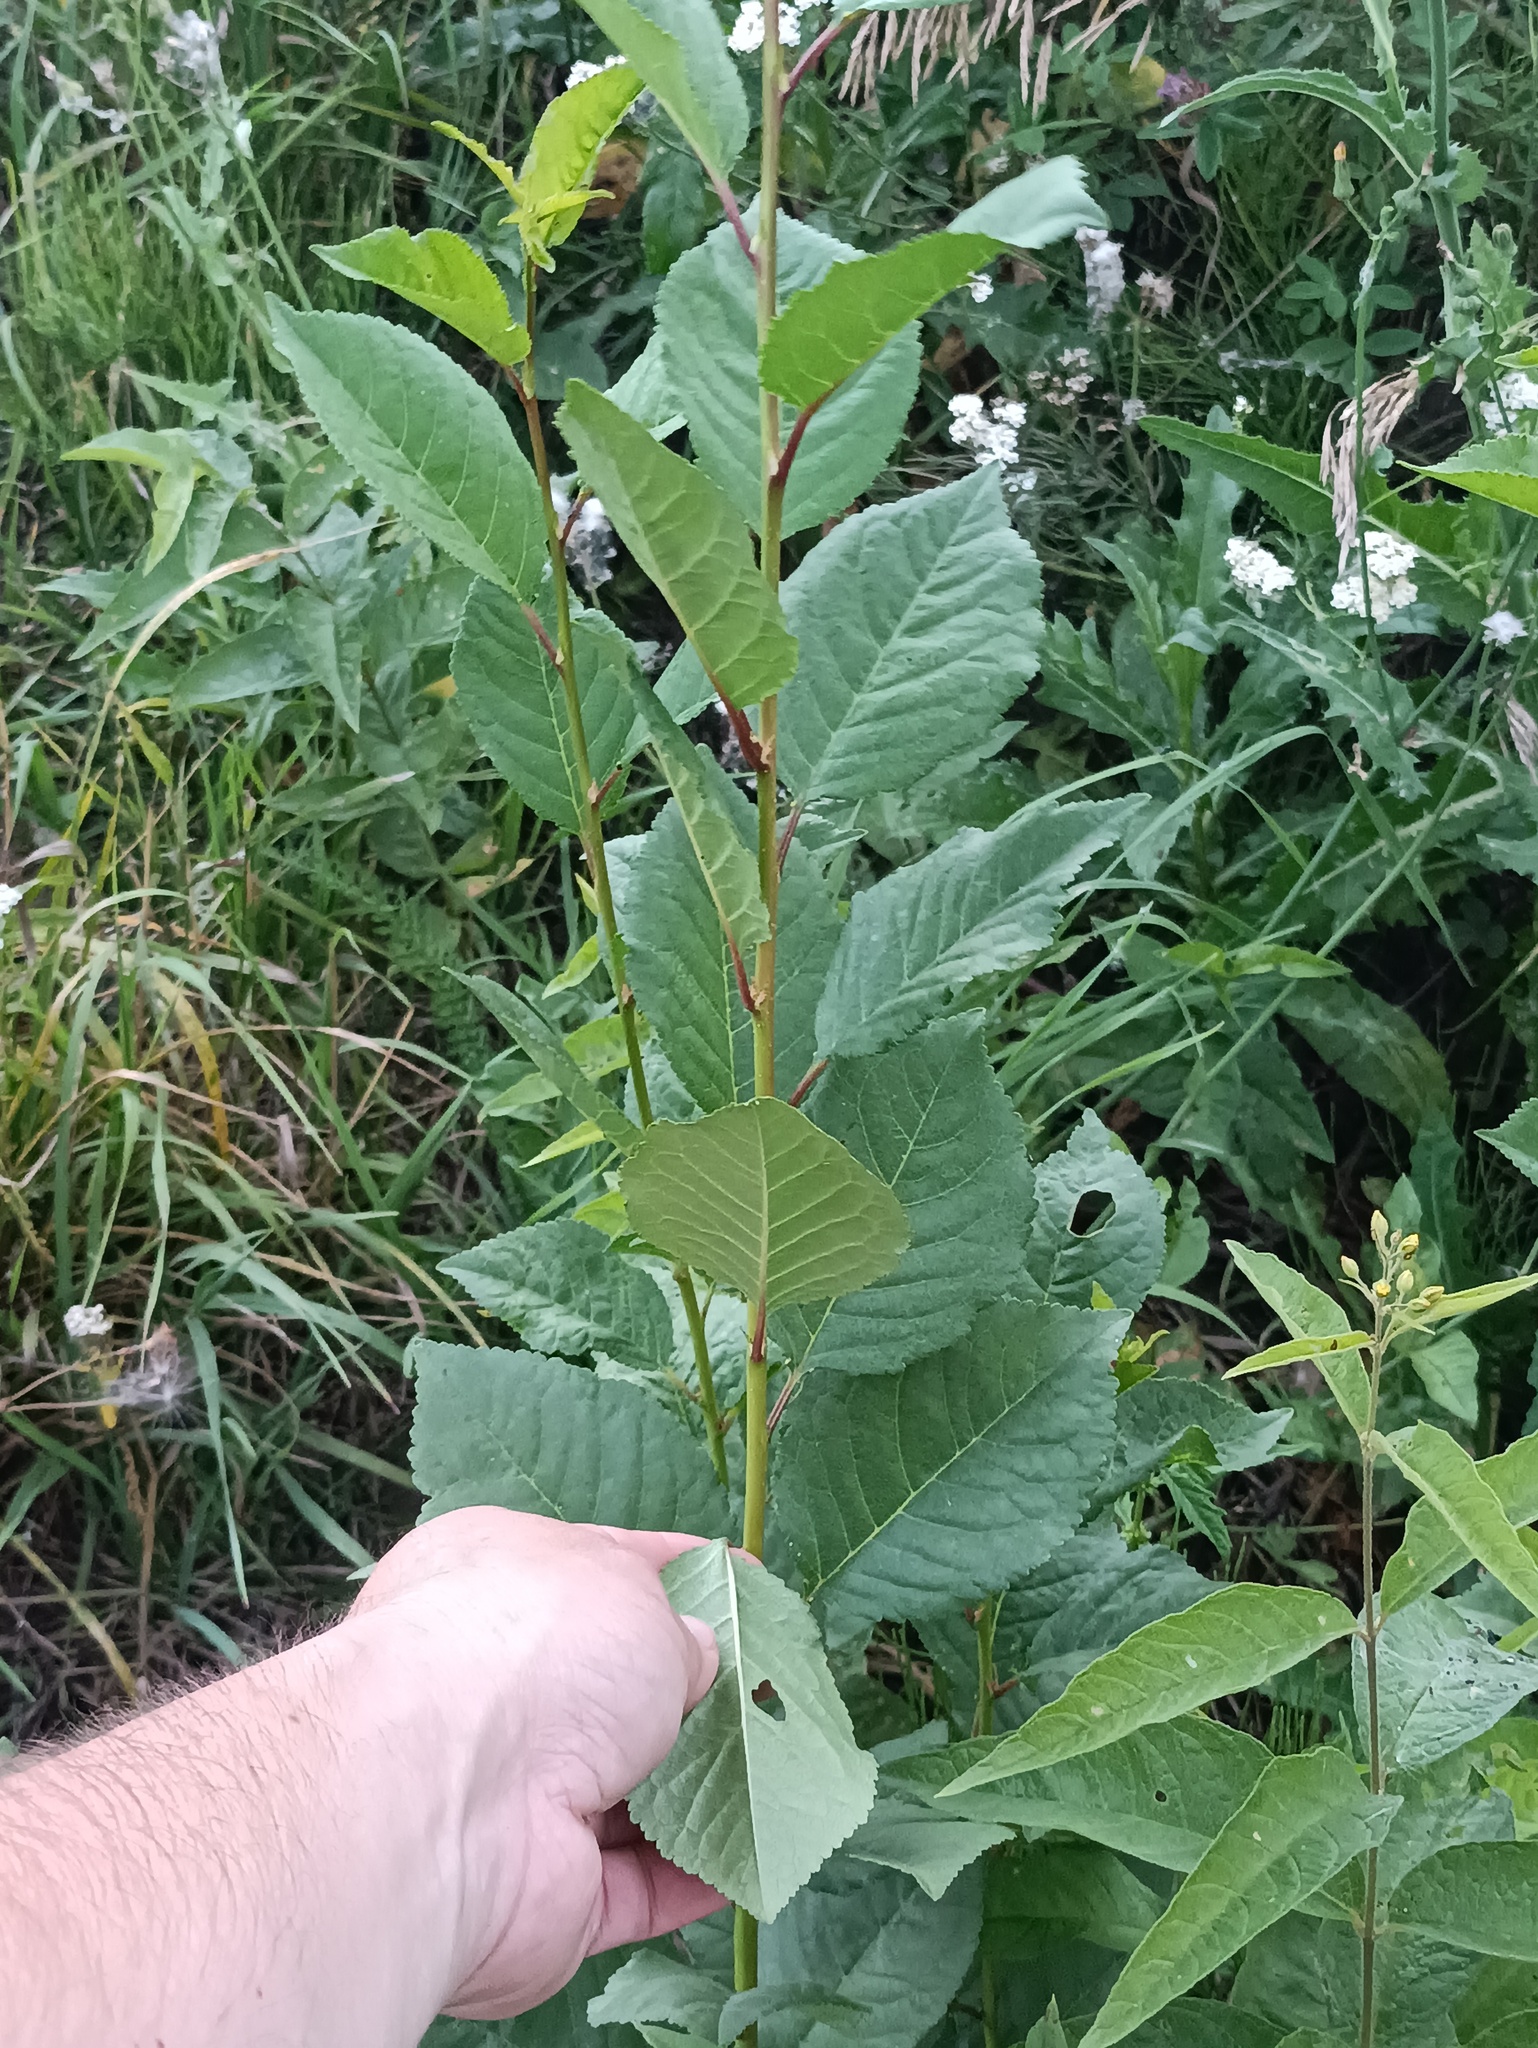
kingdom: Plantae
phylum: Tracheophyta
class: Magnoliopsida
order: Rosales
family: Rosaceae
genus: Prunus
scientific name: Prunus cerasus
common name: Morello cherry
